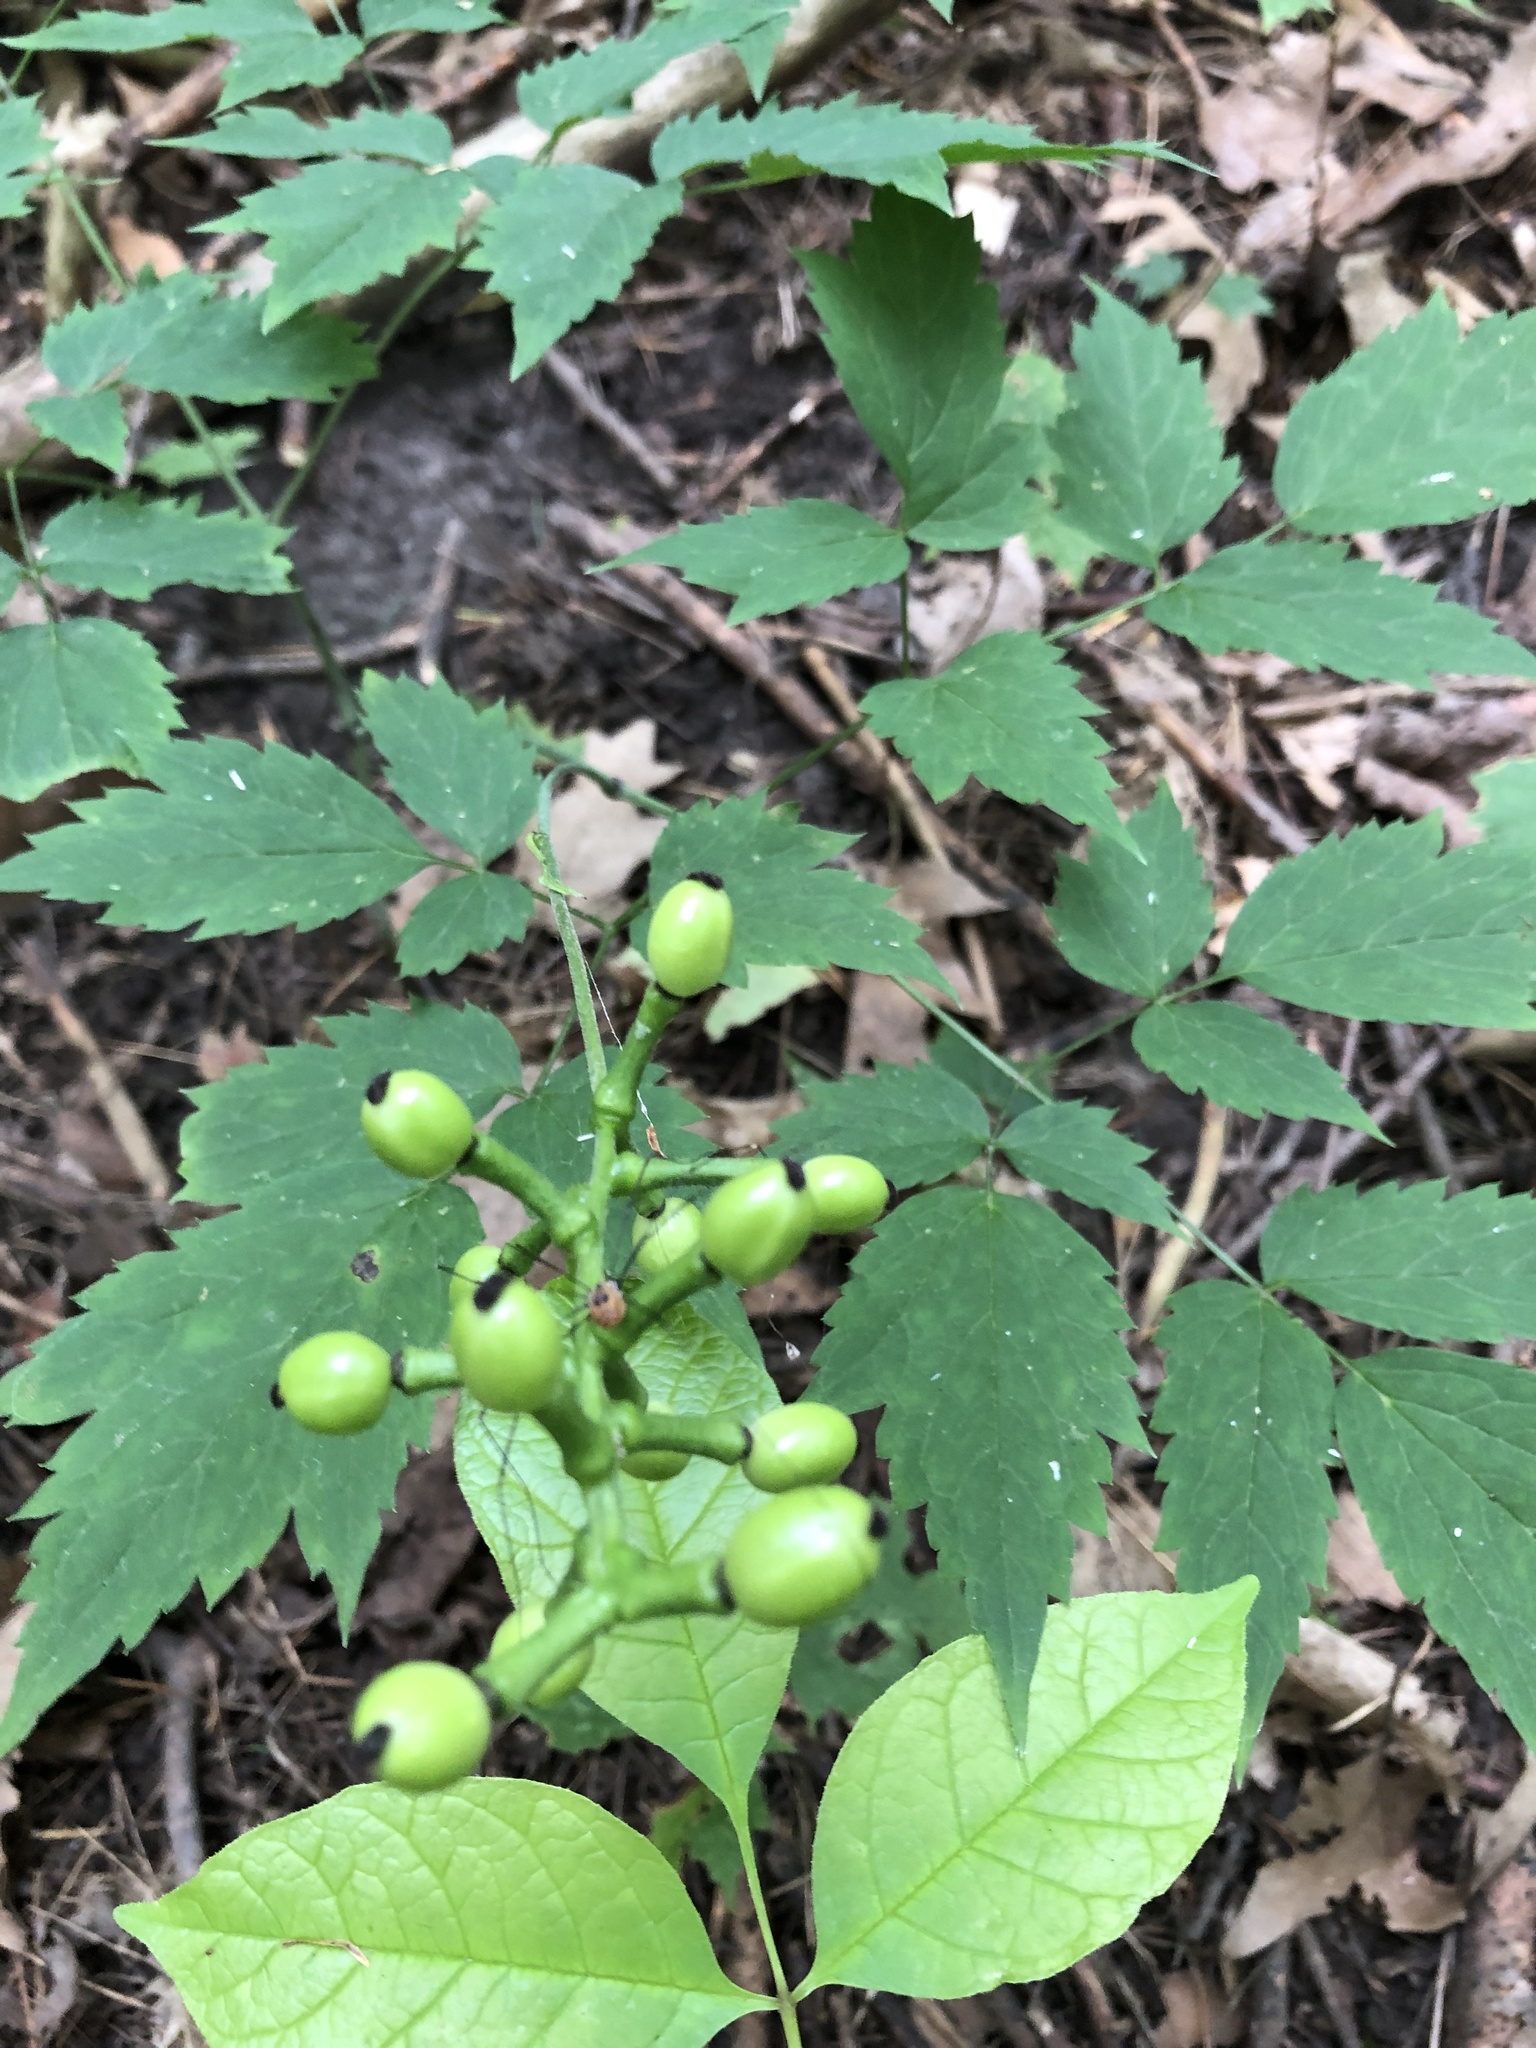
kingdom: Plantae
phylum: Tracheophyta
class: Magnoliopsida
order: Ranunculales
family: Ranunculaceae
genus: Actaea
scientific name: Actaea pachypoda
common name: Doll's-eyes
